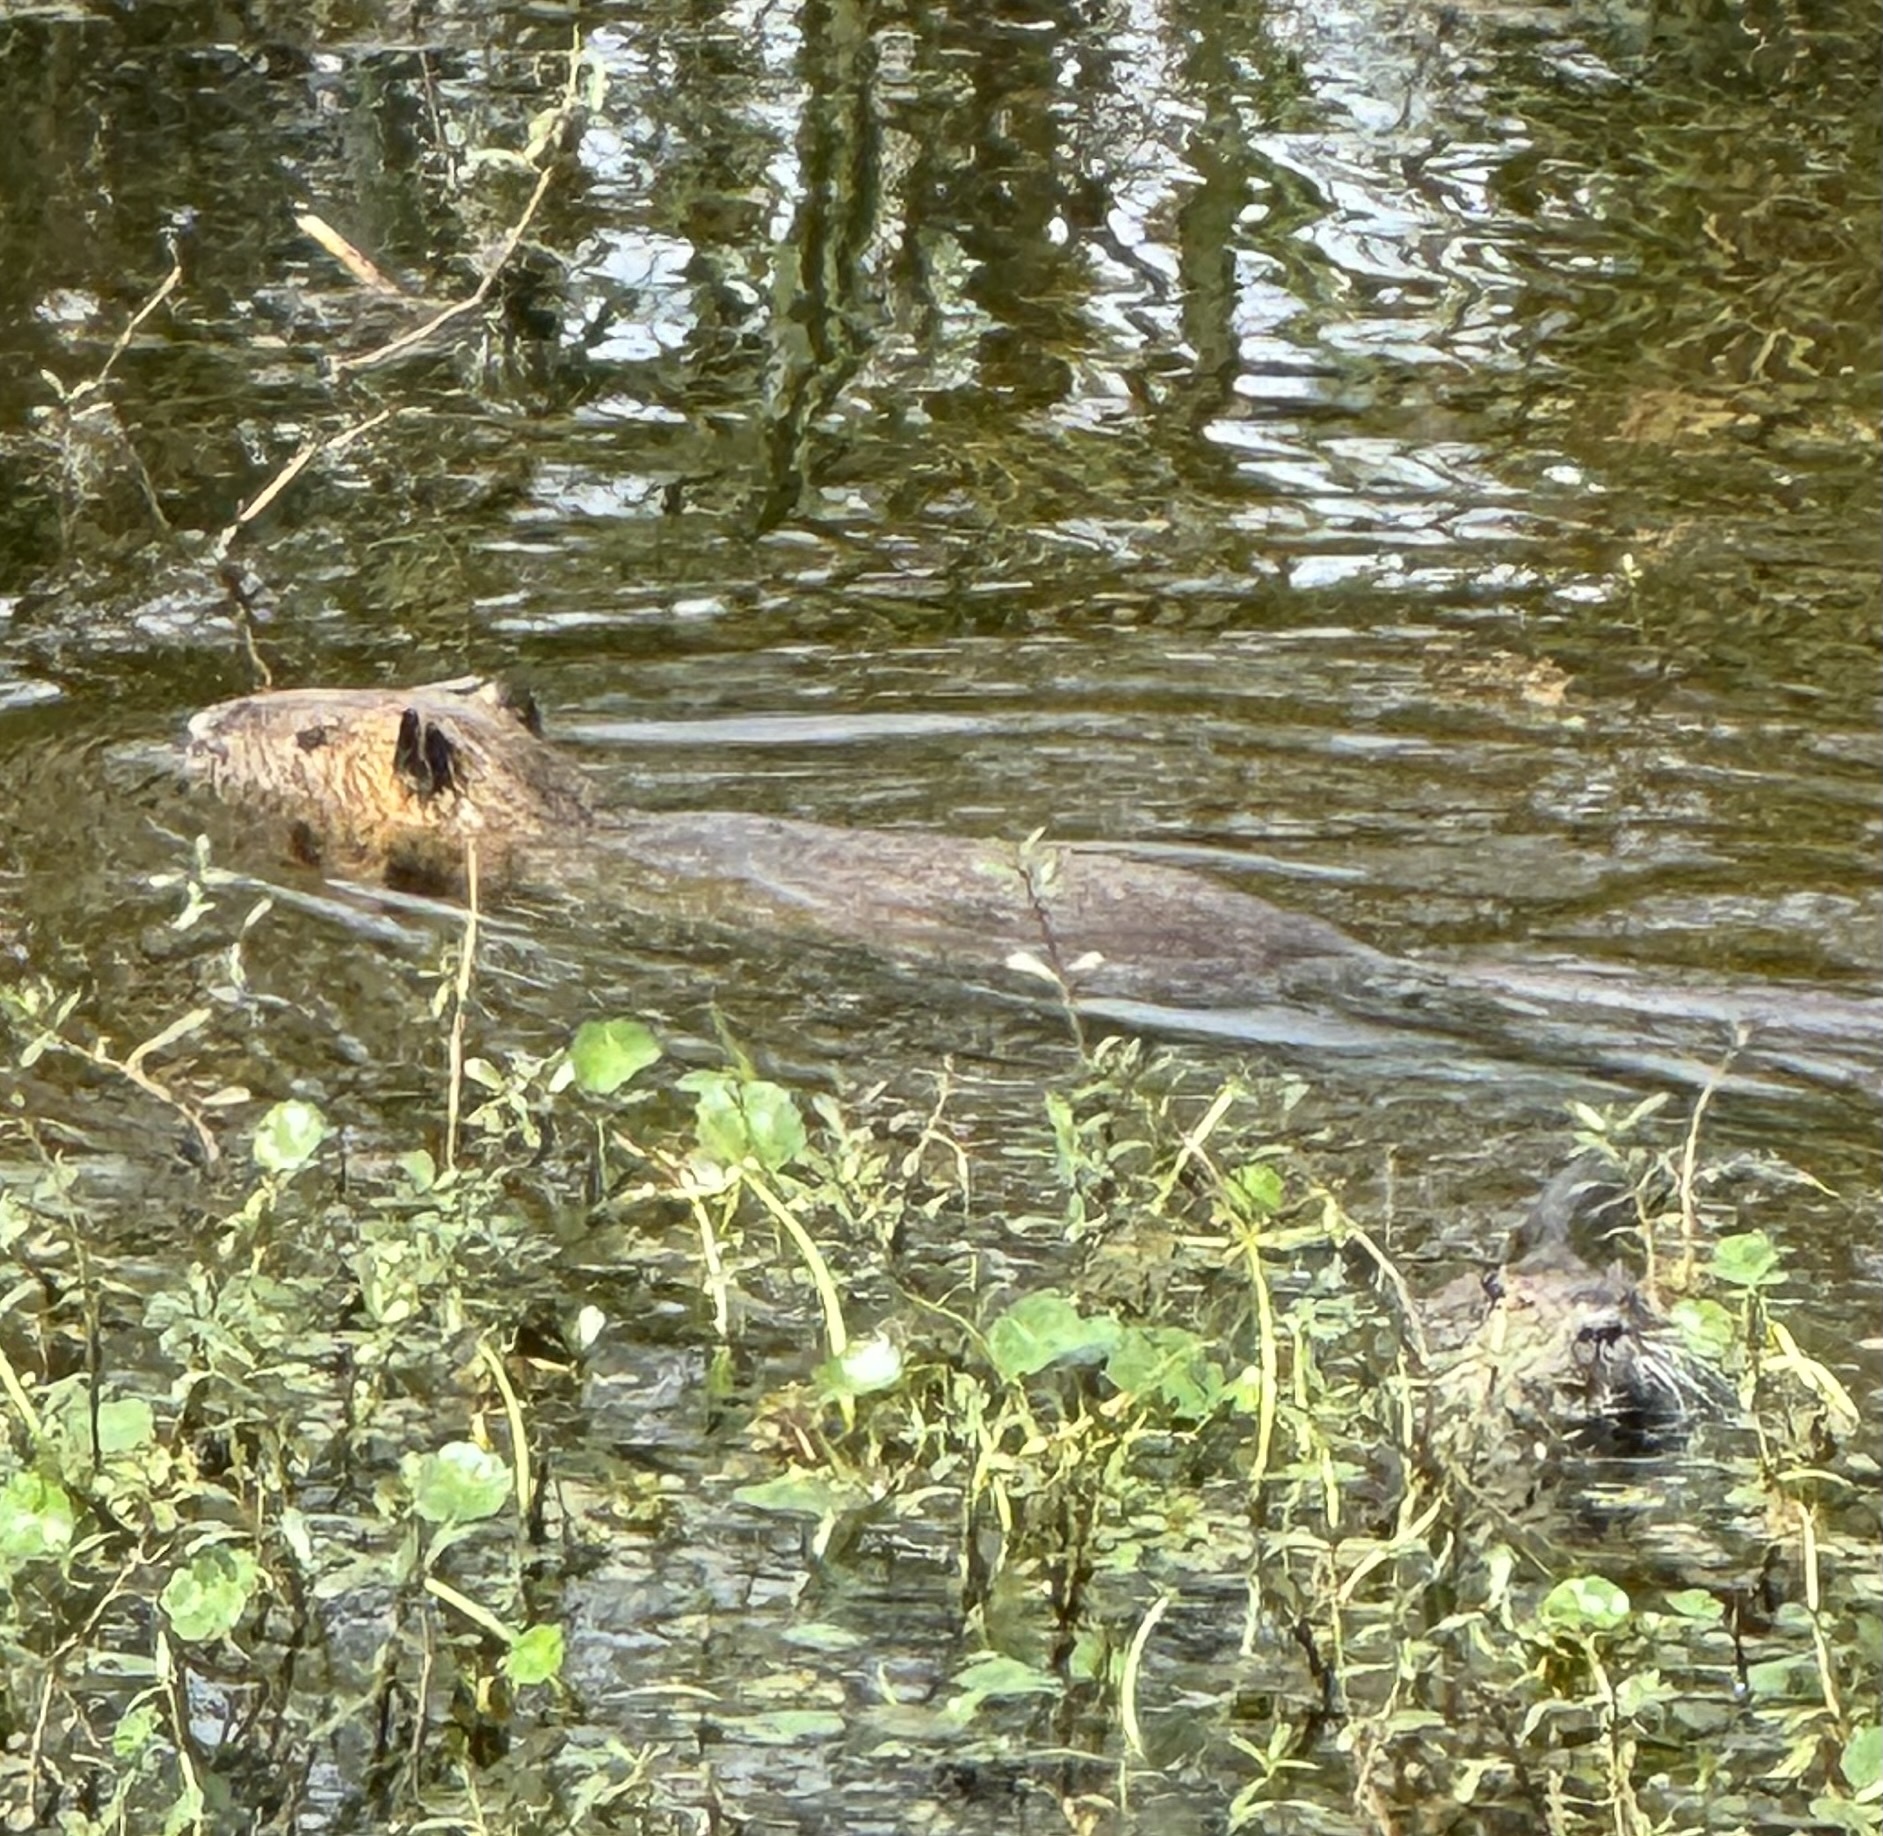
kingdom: Animalia
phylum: Chordata
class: Mammalia
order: Rodentia
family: Myocastoridae
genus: Myocastor
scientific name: Myocastor coypus
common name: Coypu
